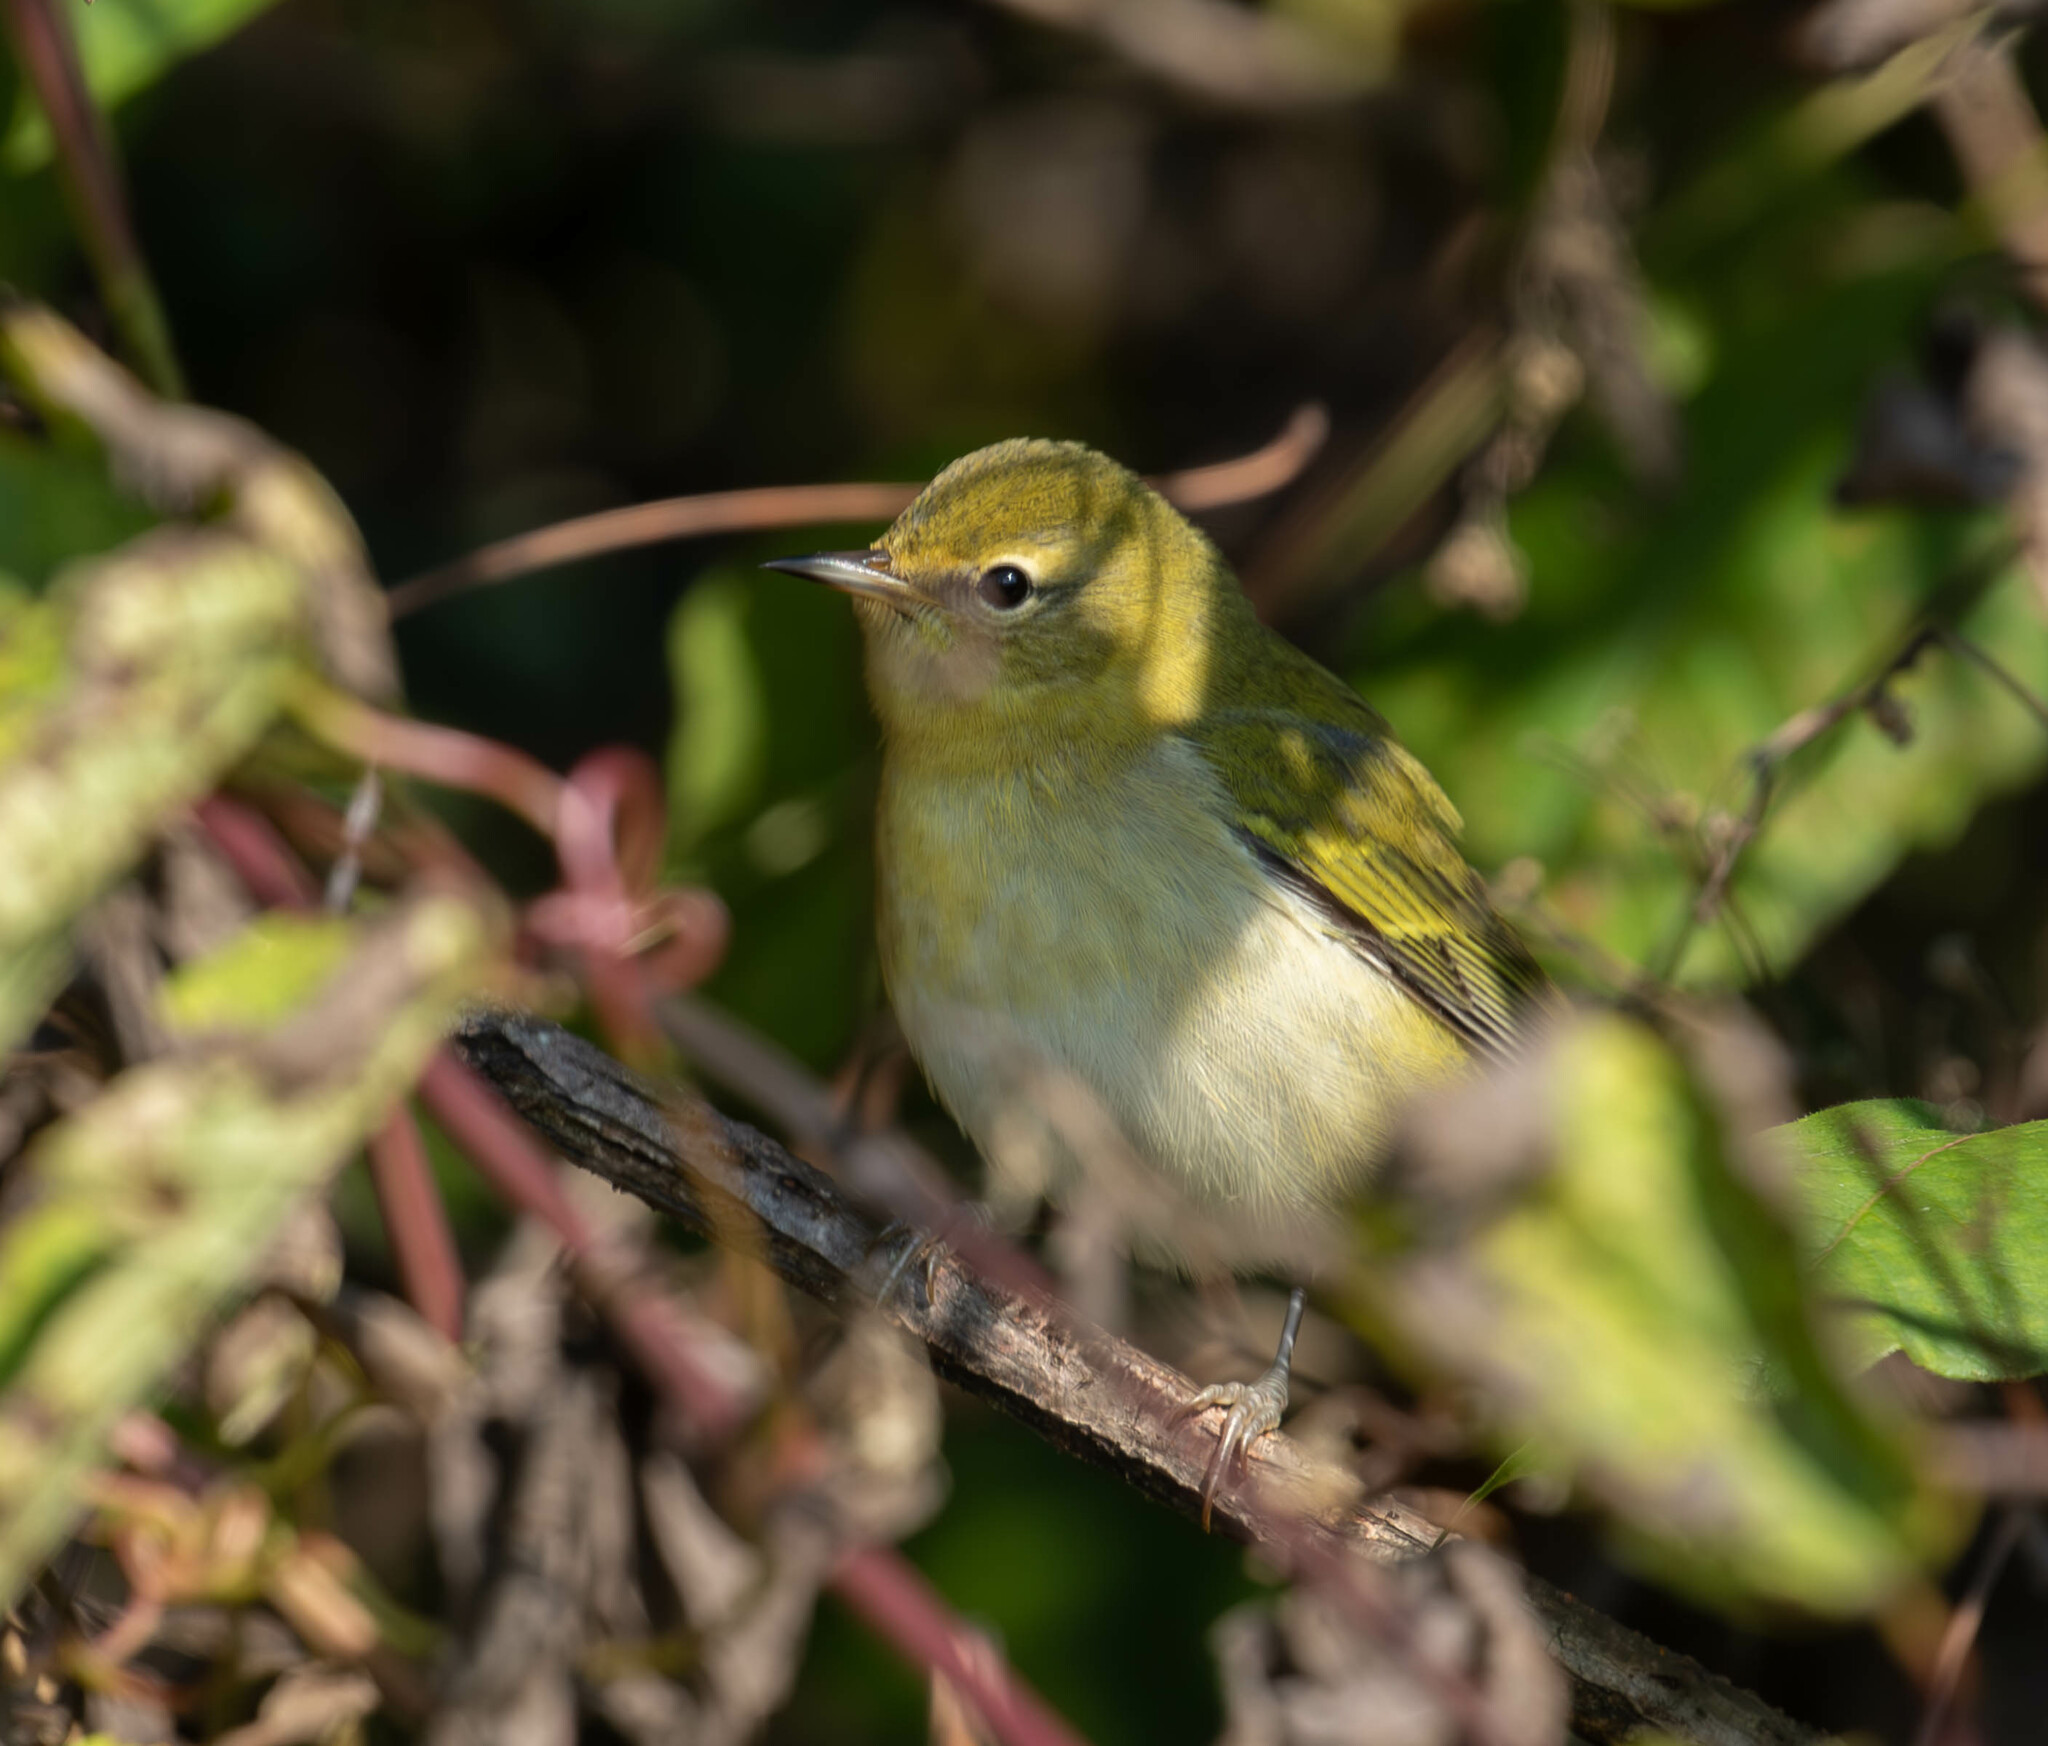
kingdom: Animalia
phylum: Chordata
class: Aves
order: Passeriformes
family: Parulidae
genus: Leiothlypis
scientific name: Leiothlypis peregrina
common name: Tennessee warbler
